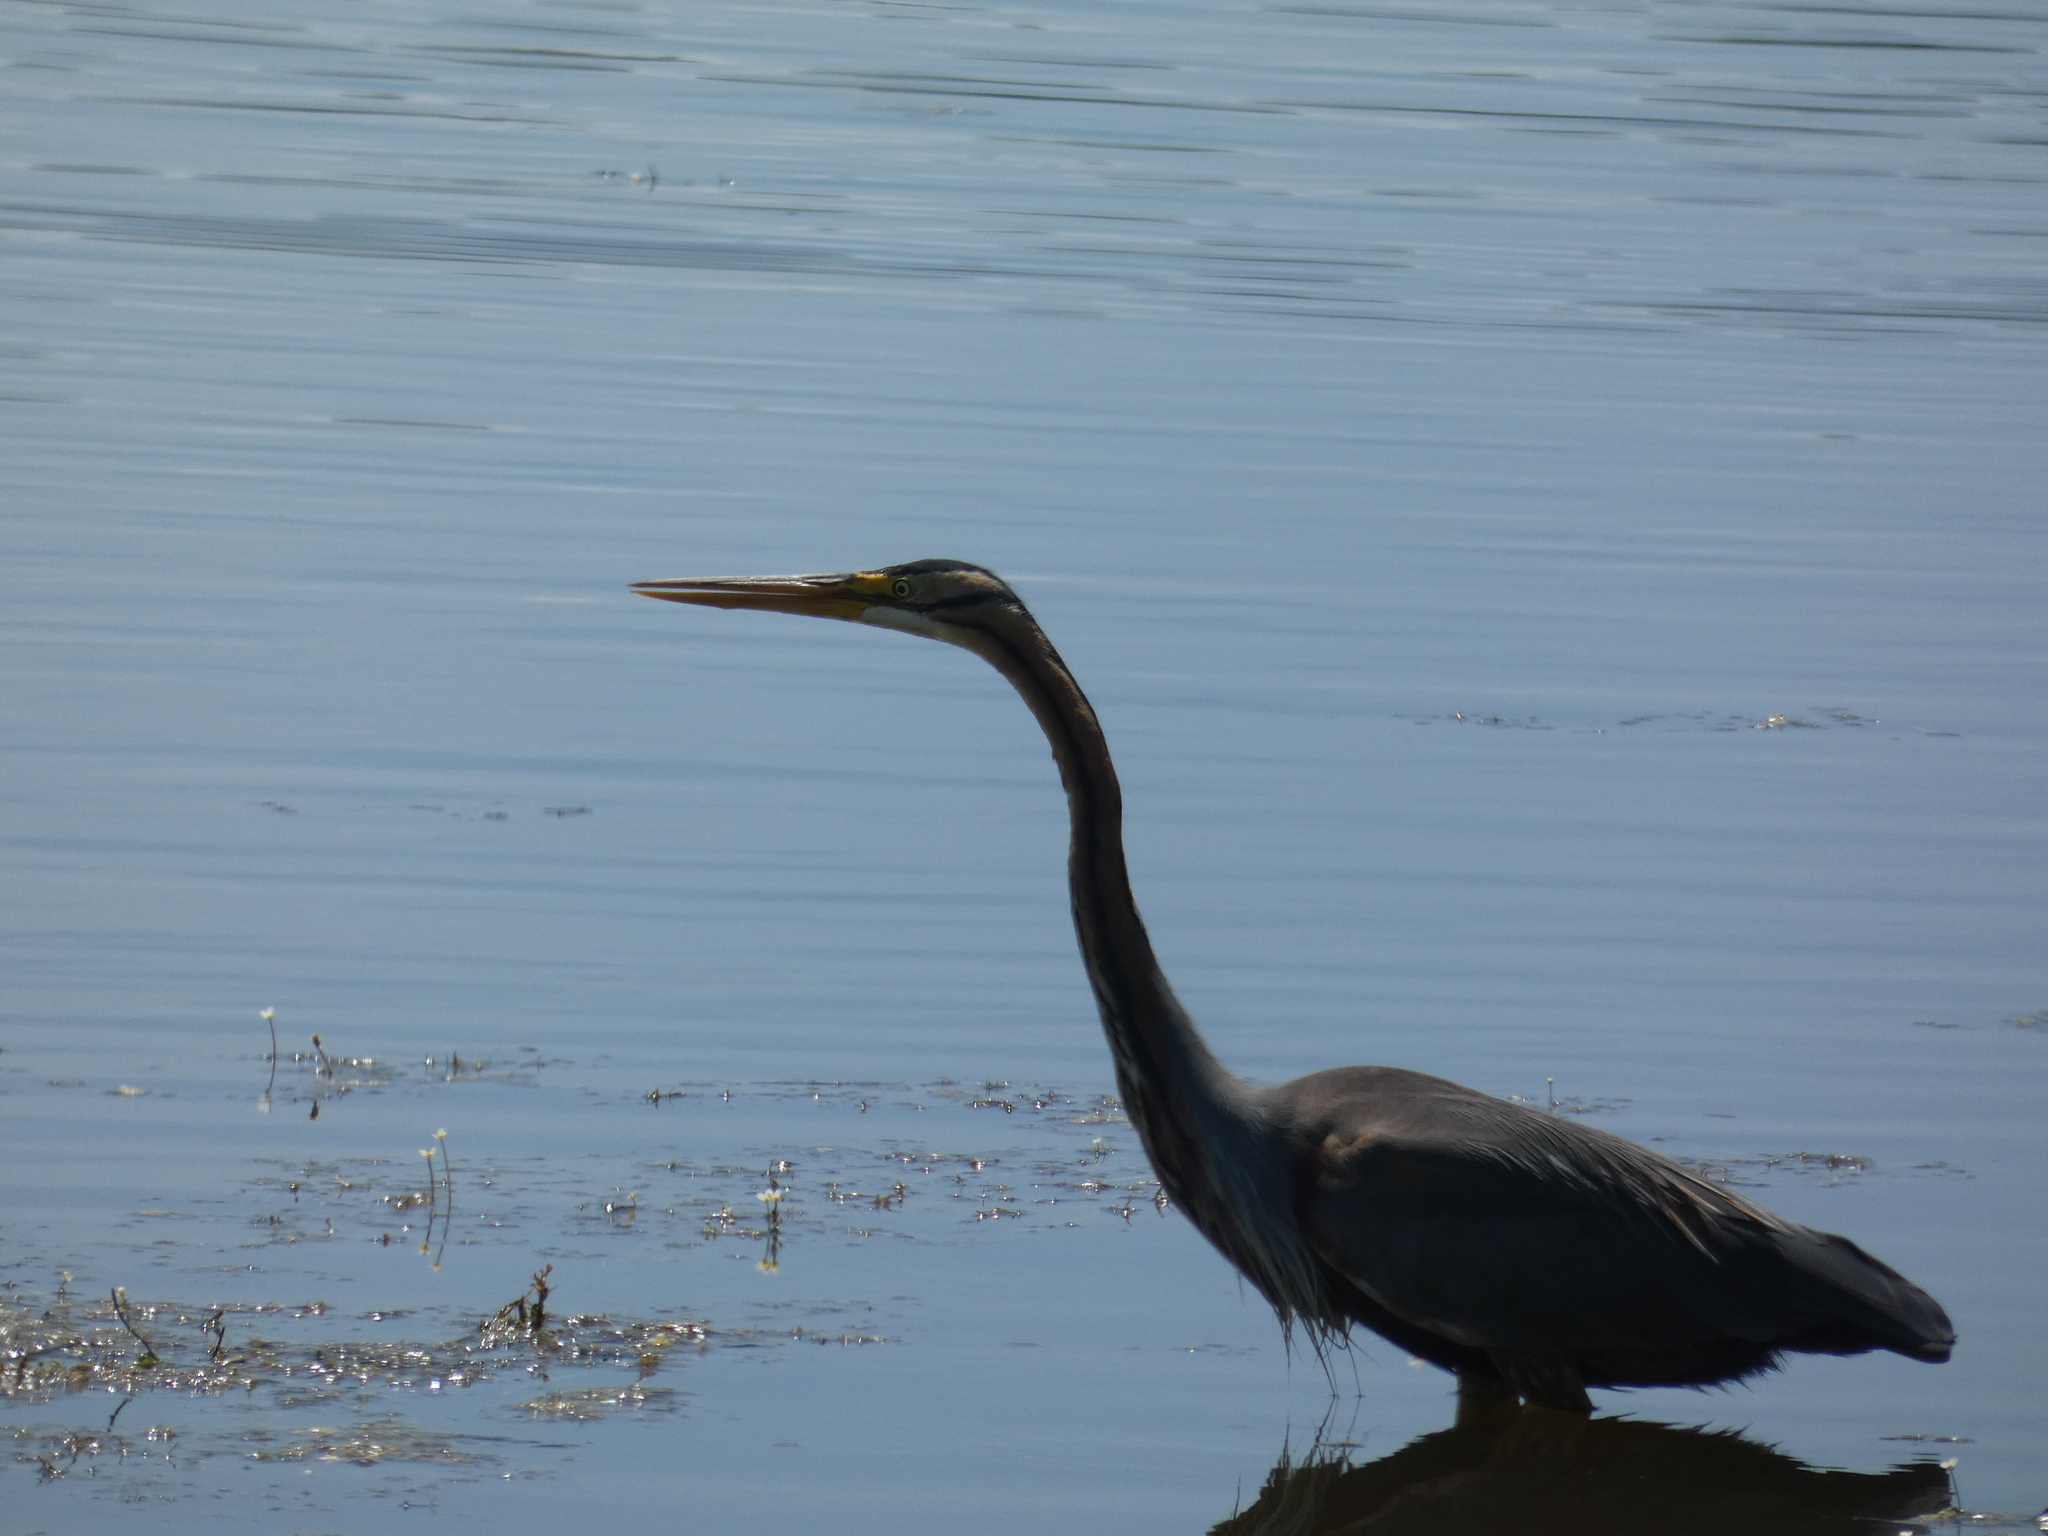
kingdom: Animalia
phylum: Chordata
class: Aves
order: Pelecaniformes
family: Ardeidae
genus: Ardea
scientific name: Ardea purpurea
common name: Purple heron
